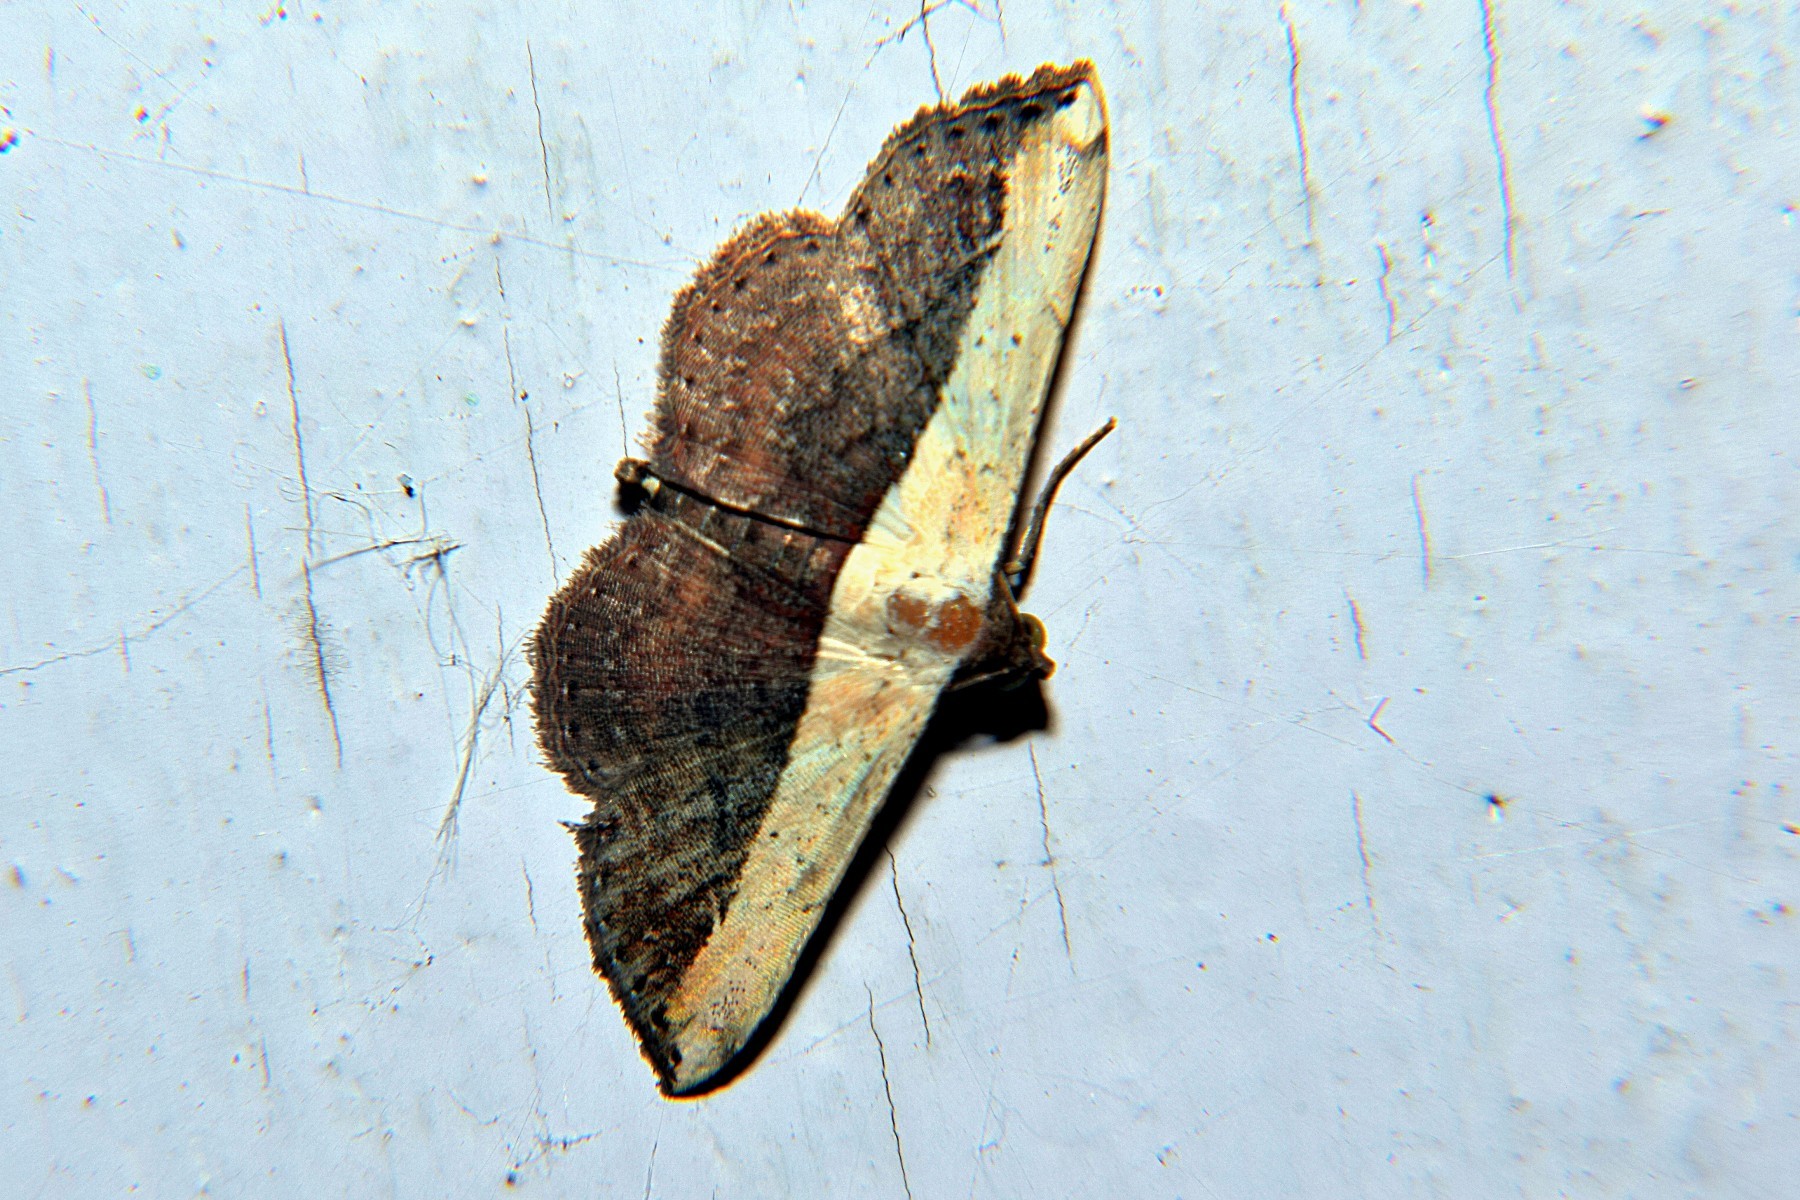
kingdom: Animalia
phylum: Arthropoda
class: Insecta
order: Lepidoptera
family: Noctuidae
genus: Ataboruza
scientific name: Ataboruza divisa
